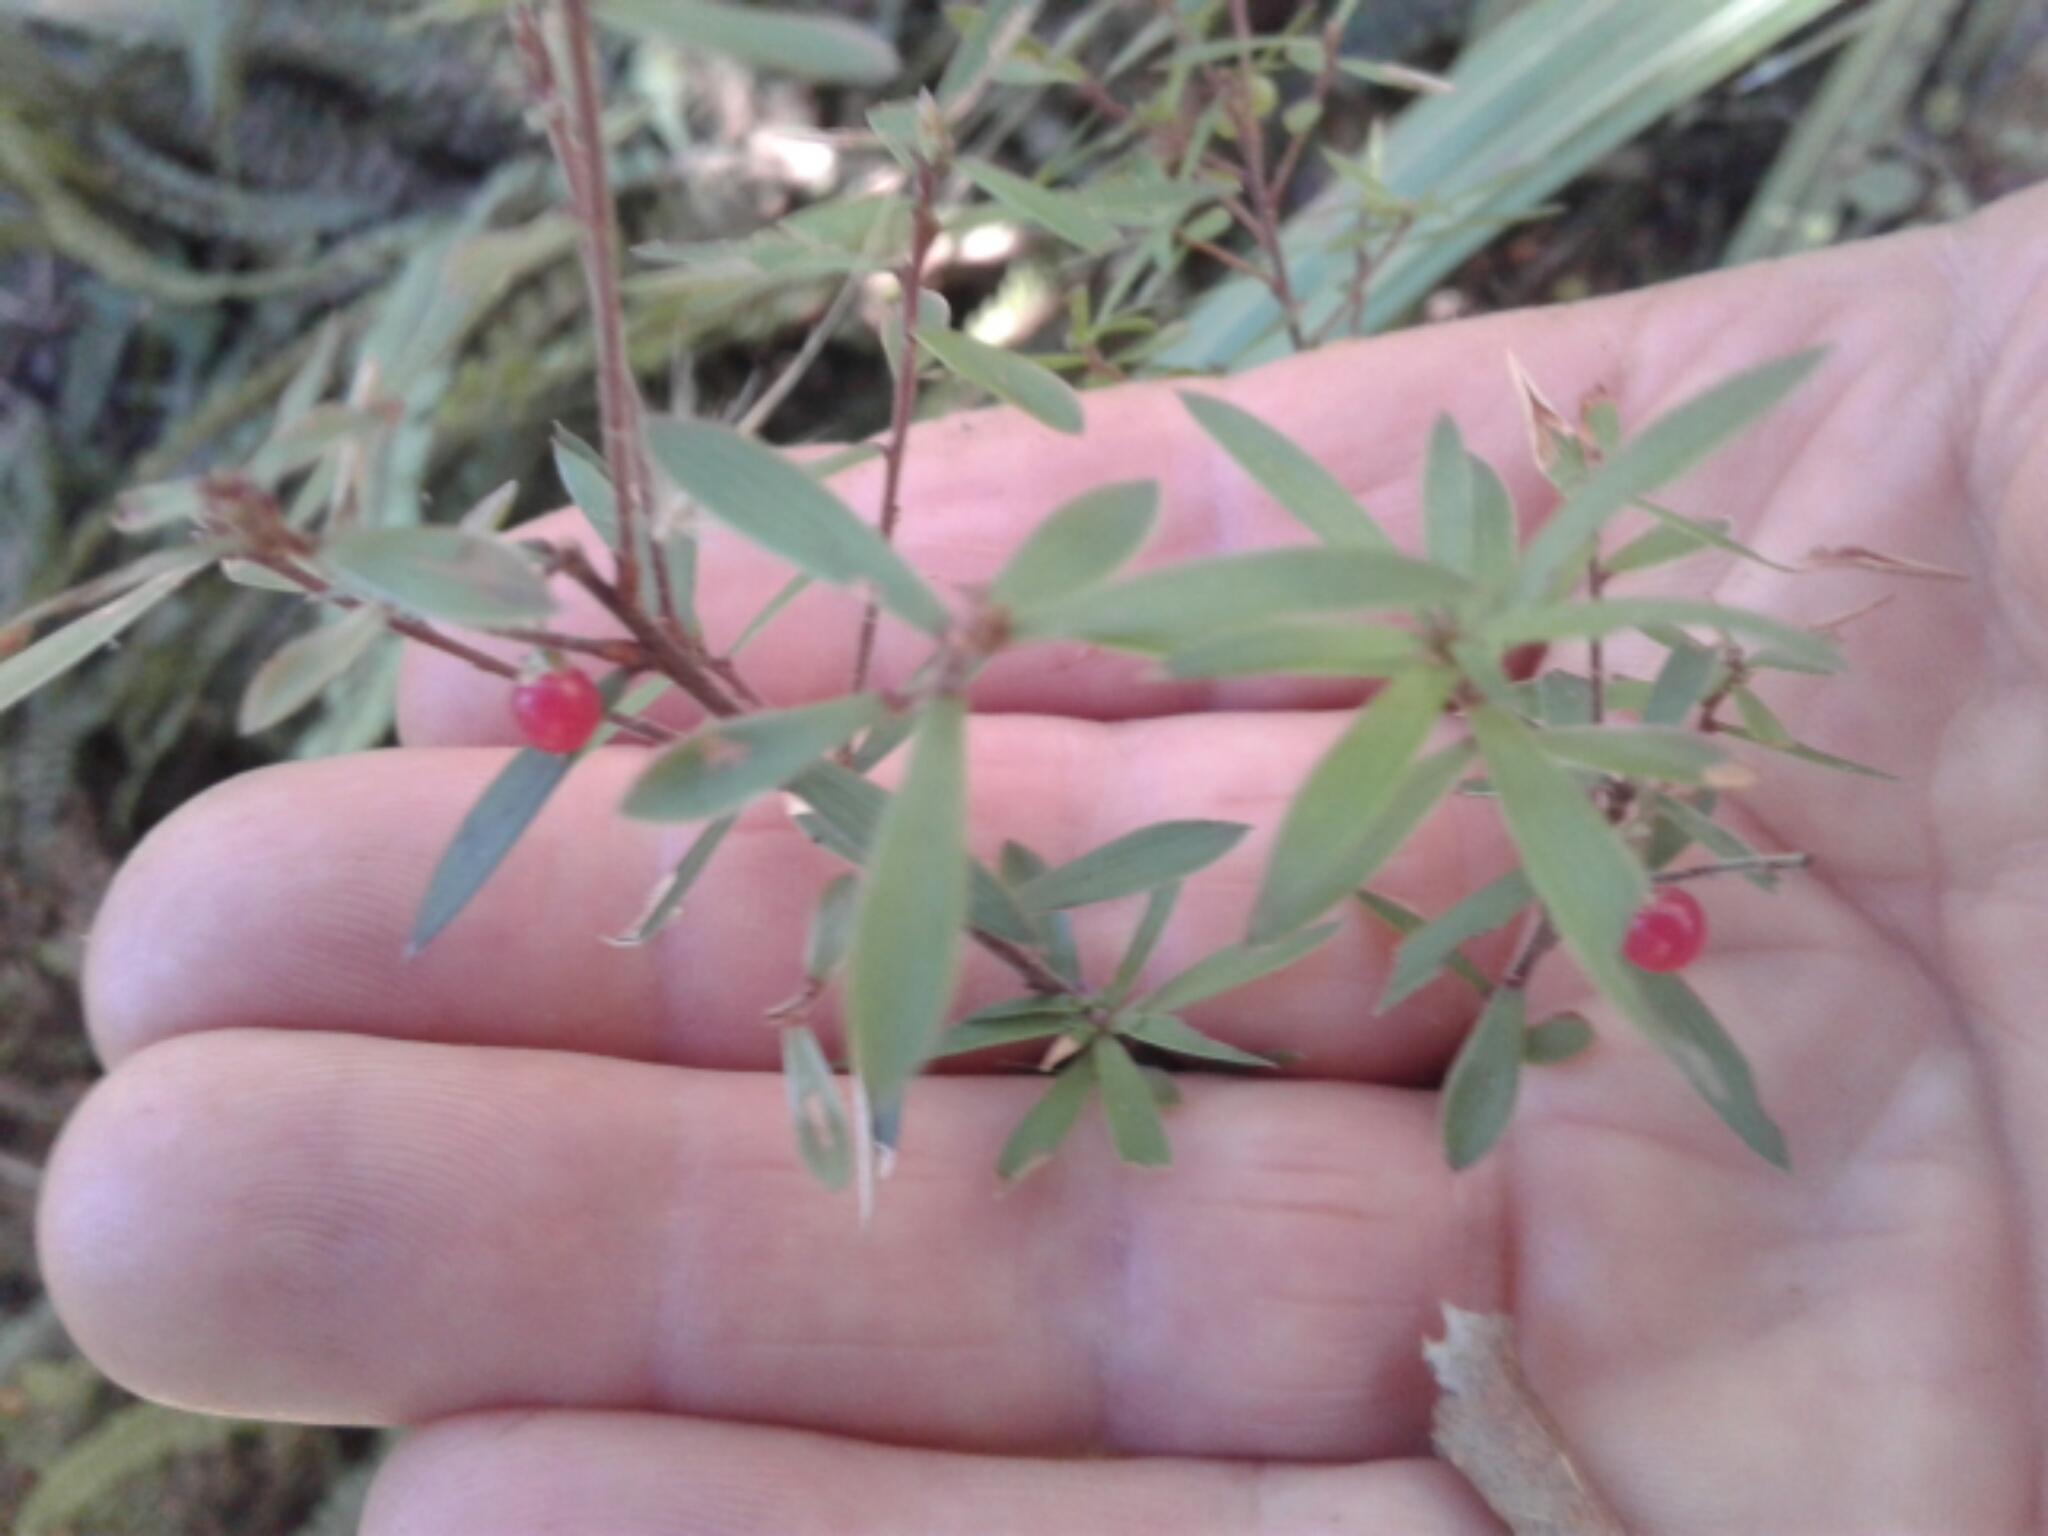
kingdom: Plantae
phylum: Tracheophyta
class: Magnoliopsida
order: Ericales
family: Ericaceae
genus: Leucopogon
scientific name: Leucopogon fasciculatus
